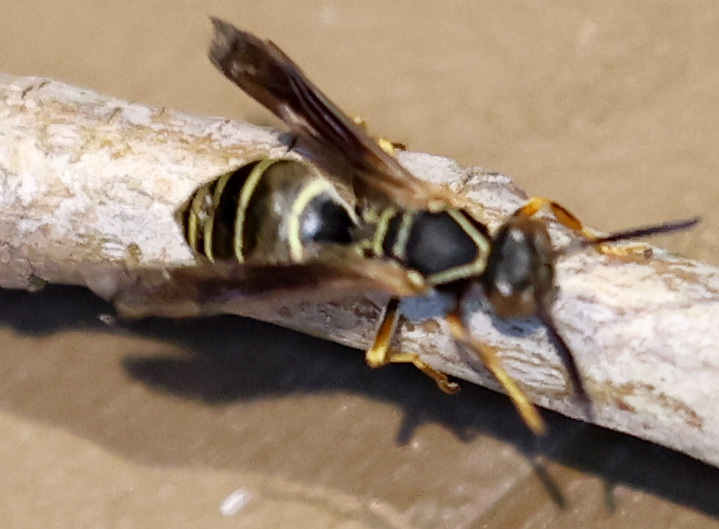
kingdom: Animalia
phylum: Arthropoda
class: Insecta
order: Hymenoptera
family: Eumenidae
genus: Polistes
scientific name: Polistes fuscatus
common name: Dark paper wasp
